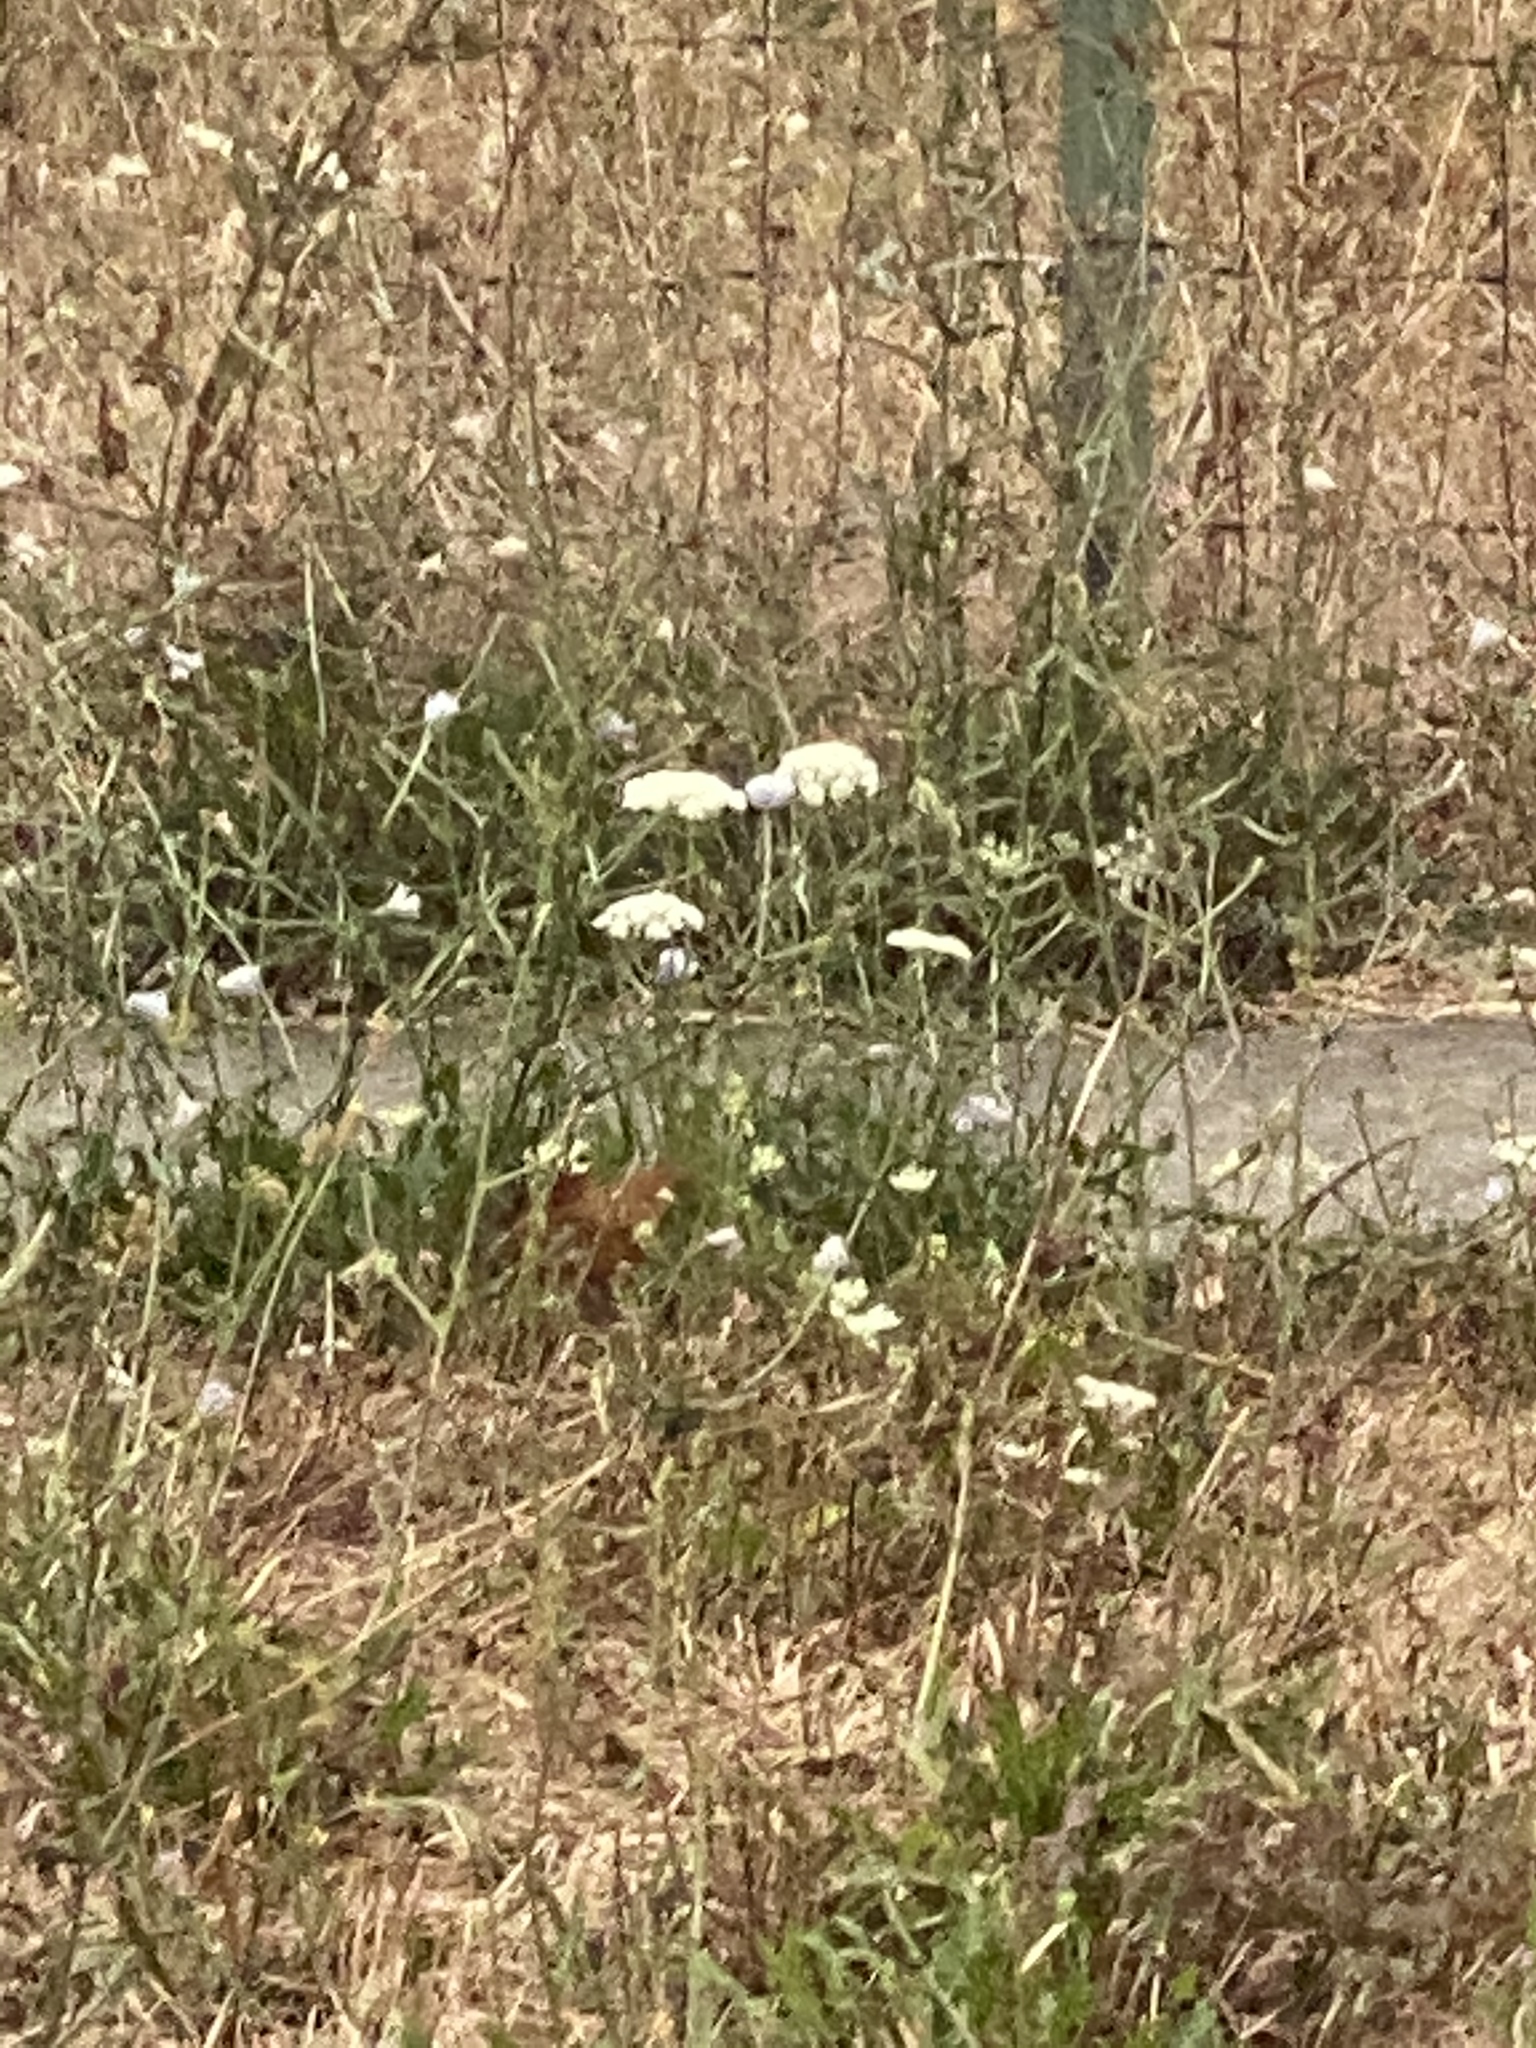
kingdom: Plantae
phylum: Tracheophyta
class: Magnoliopsida
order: Apiales
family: Apiaceae
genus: Daucus
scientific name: Daucus carota
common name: Wild carrot
